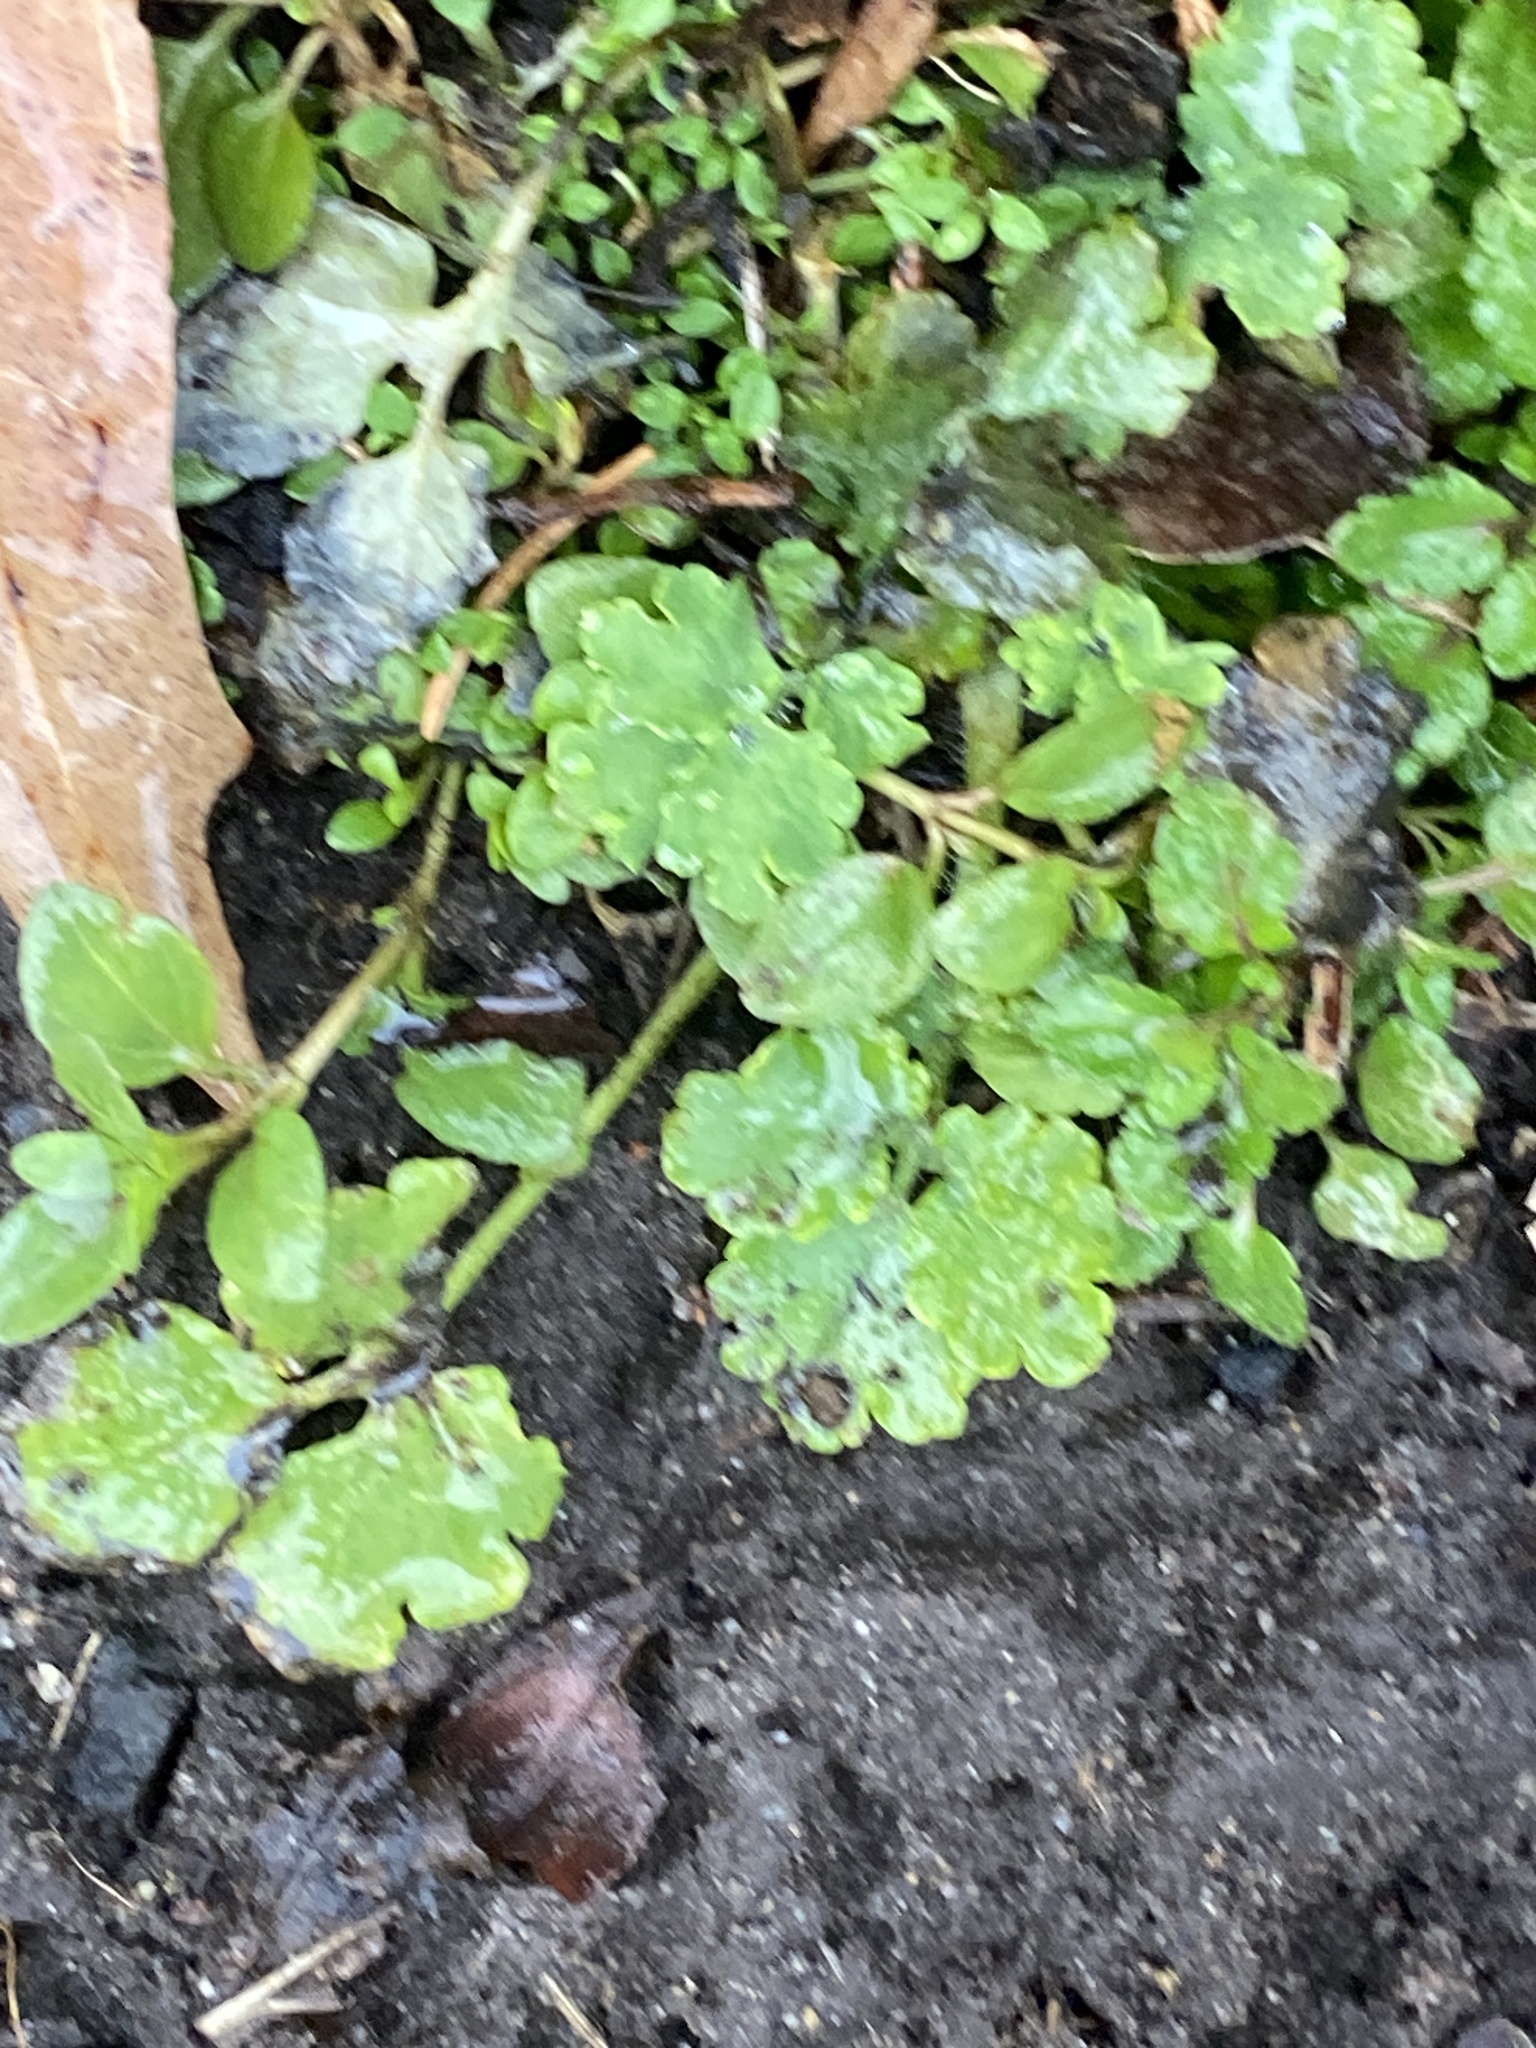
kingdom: Plantae
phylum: Tracheophyta
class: Magnoliopsida
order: Ranunculales
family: Papaveraceae
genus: Chelidonium
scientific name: Chelidonium majus
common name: Greater celandine
